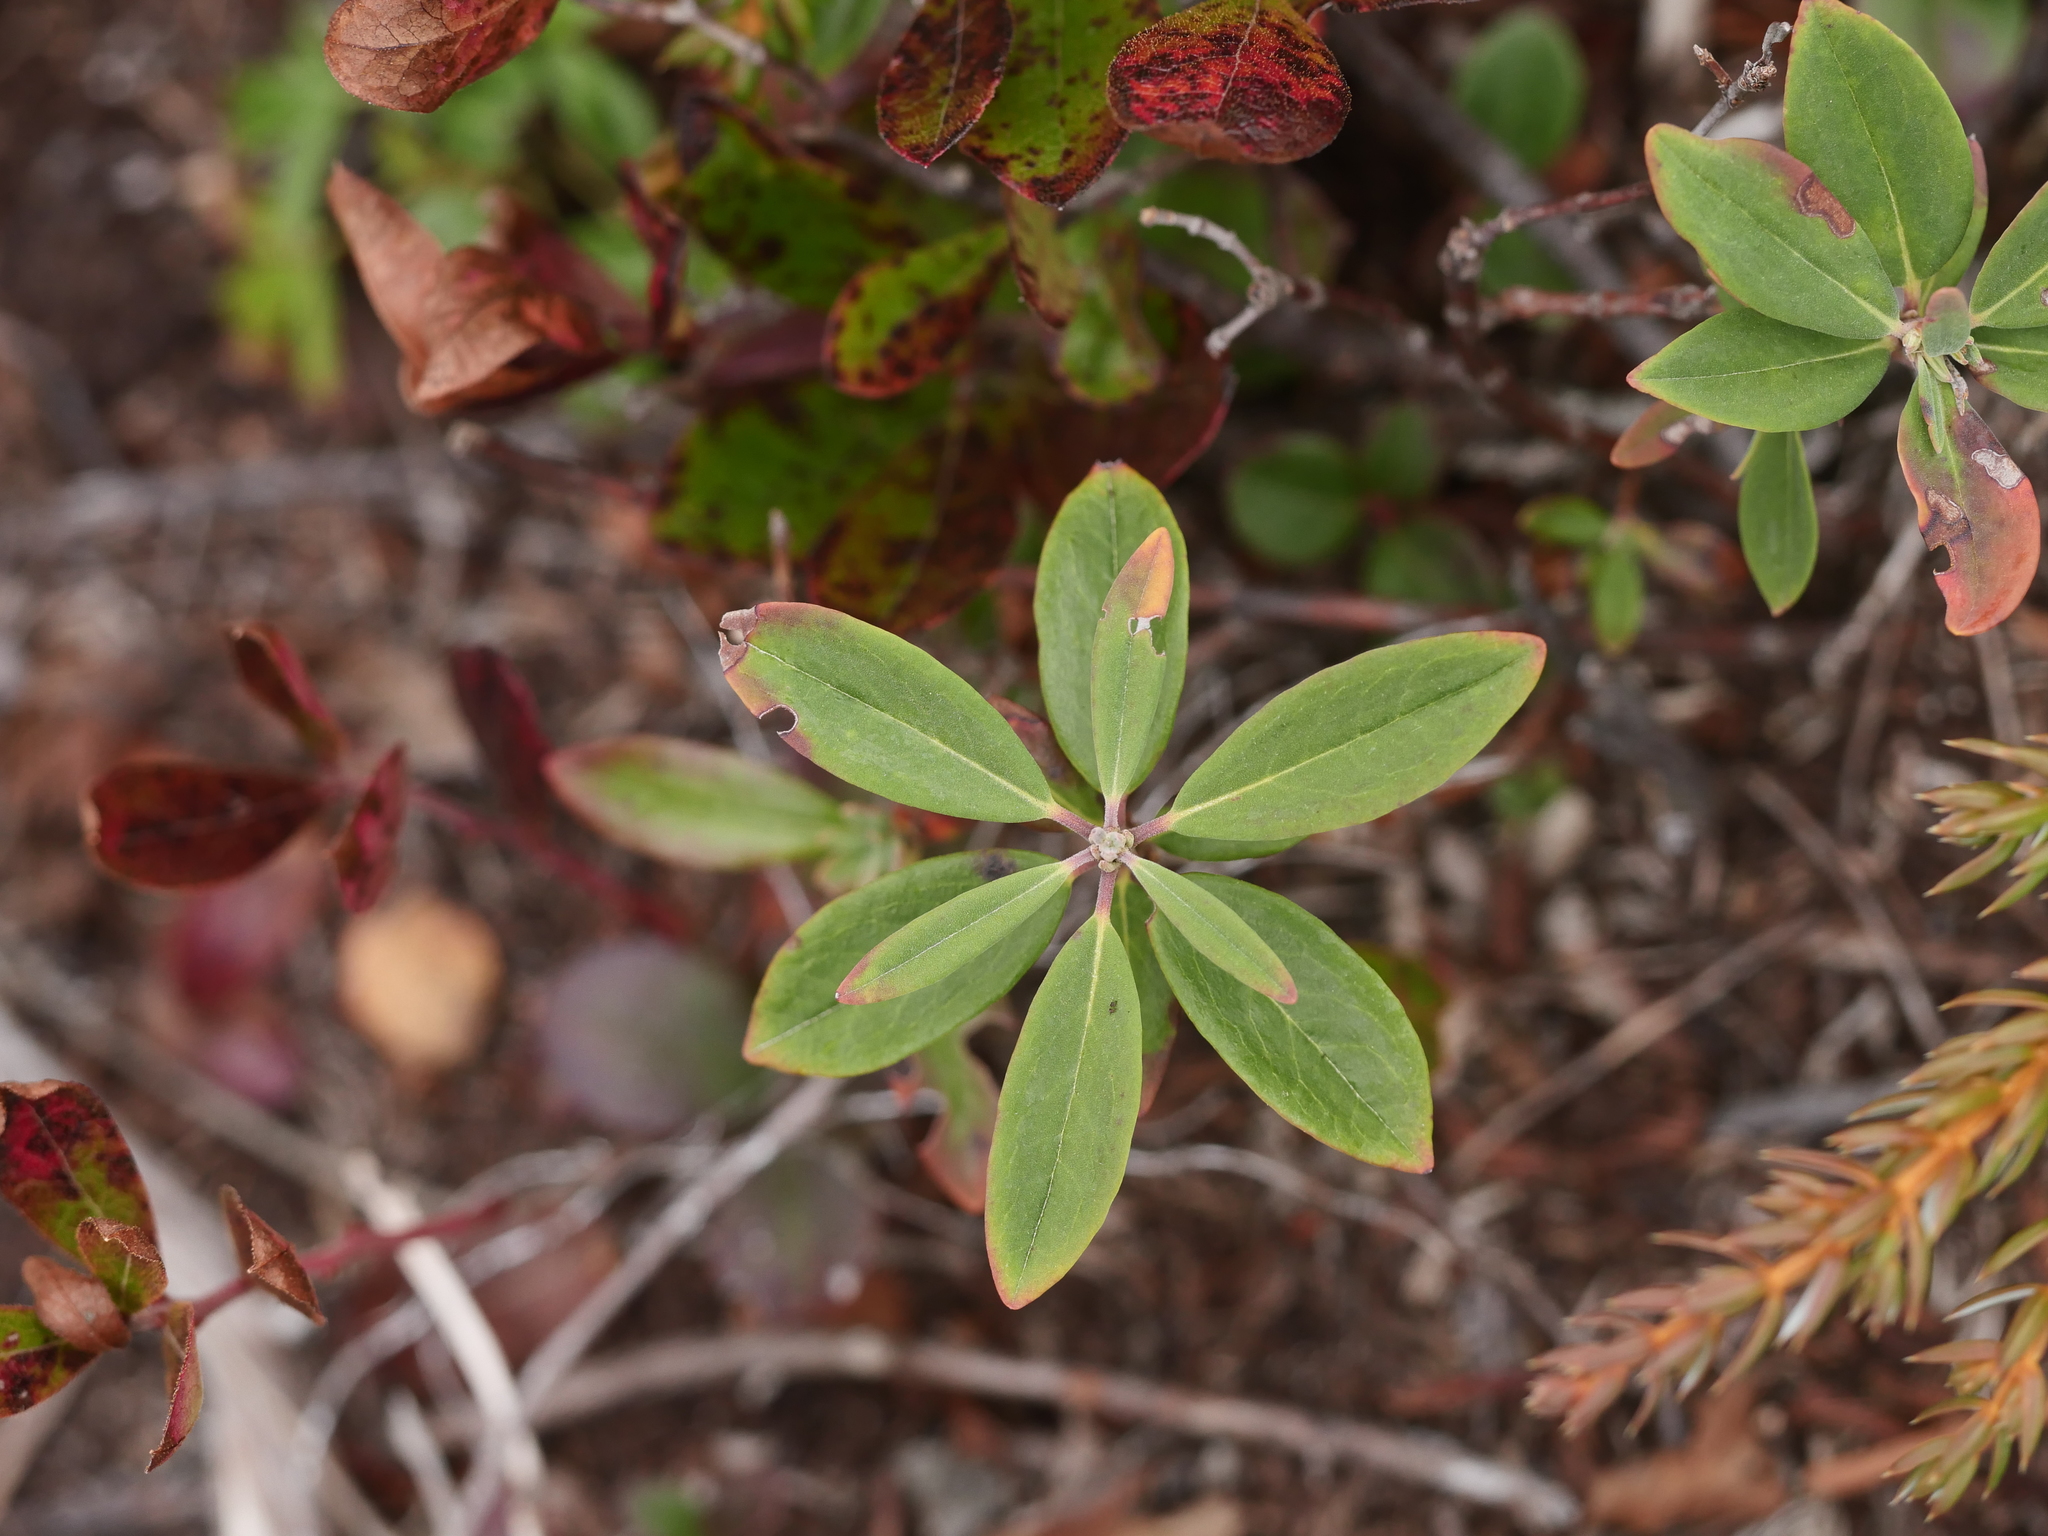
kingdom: Plantae
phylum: Tracheophyta
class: Magnoliopsida
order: Ericales
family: Ericaceae
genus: Kalmia
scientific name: Kalmia angustifolia
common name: Sheep-laurel
